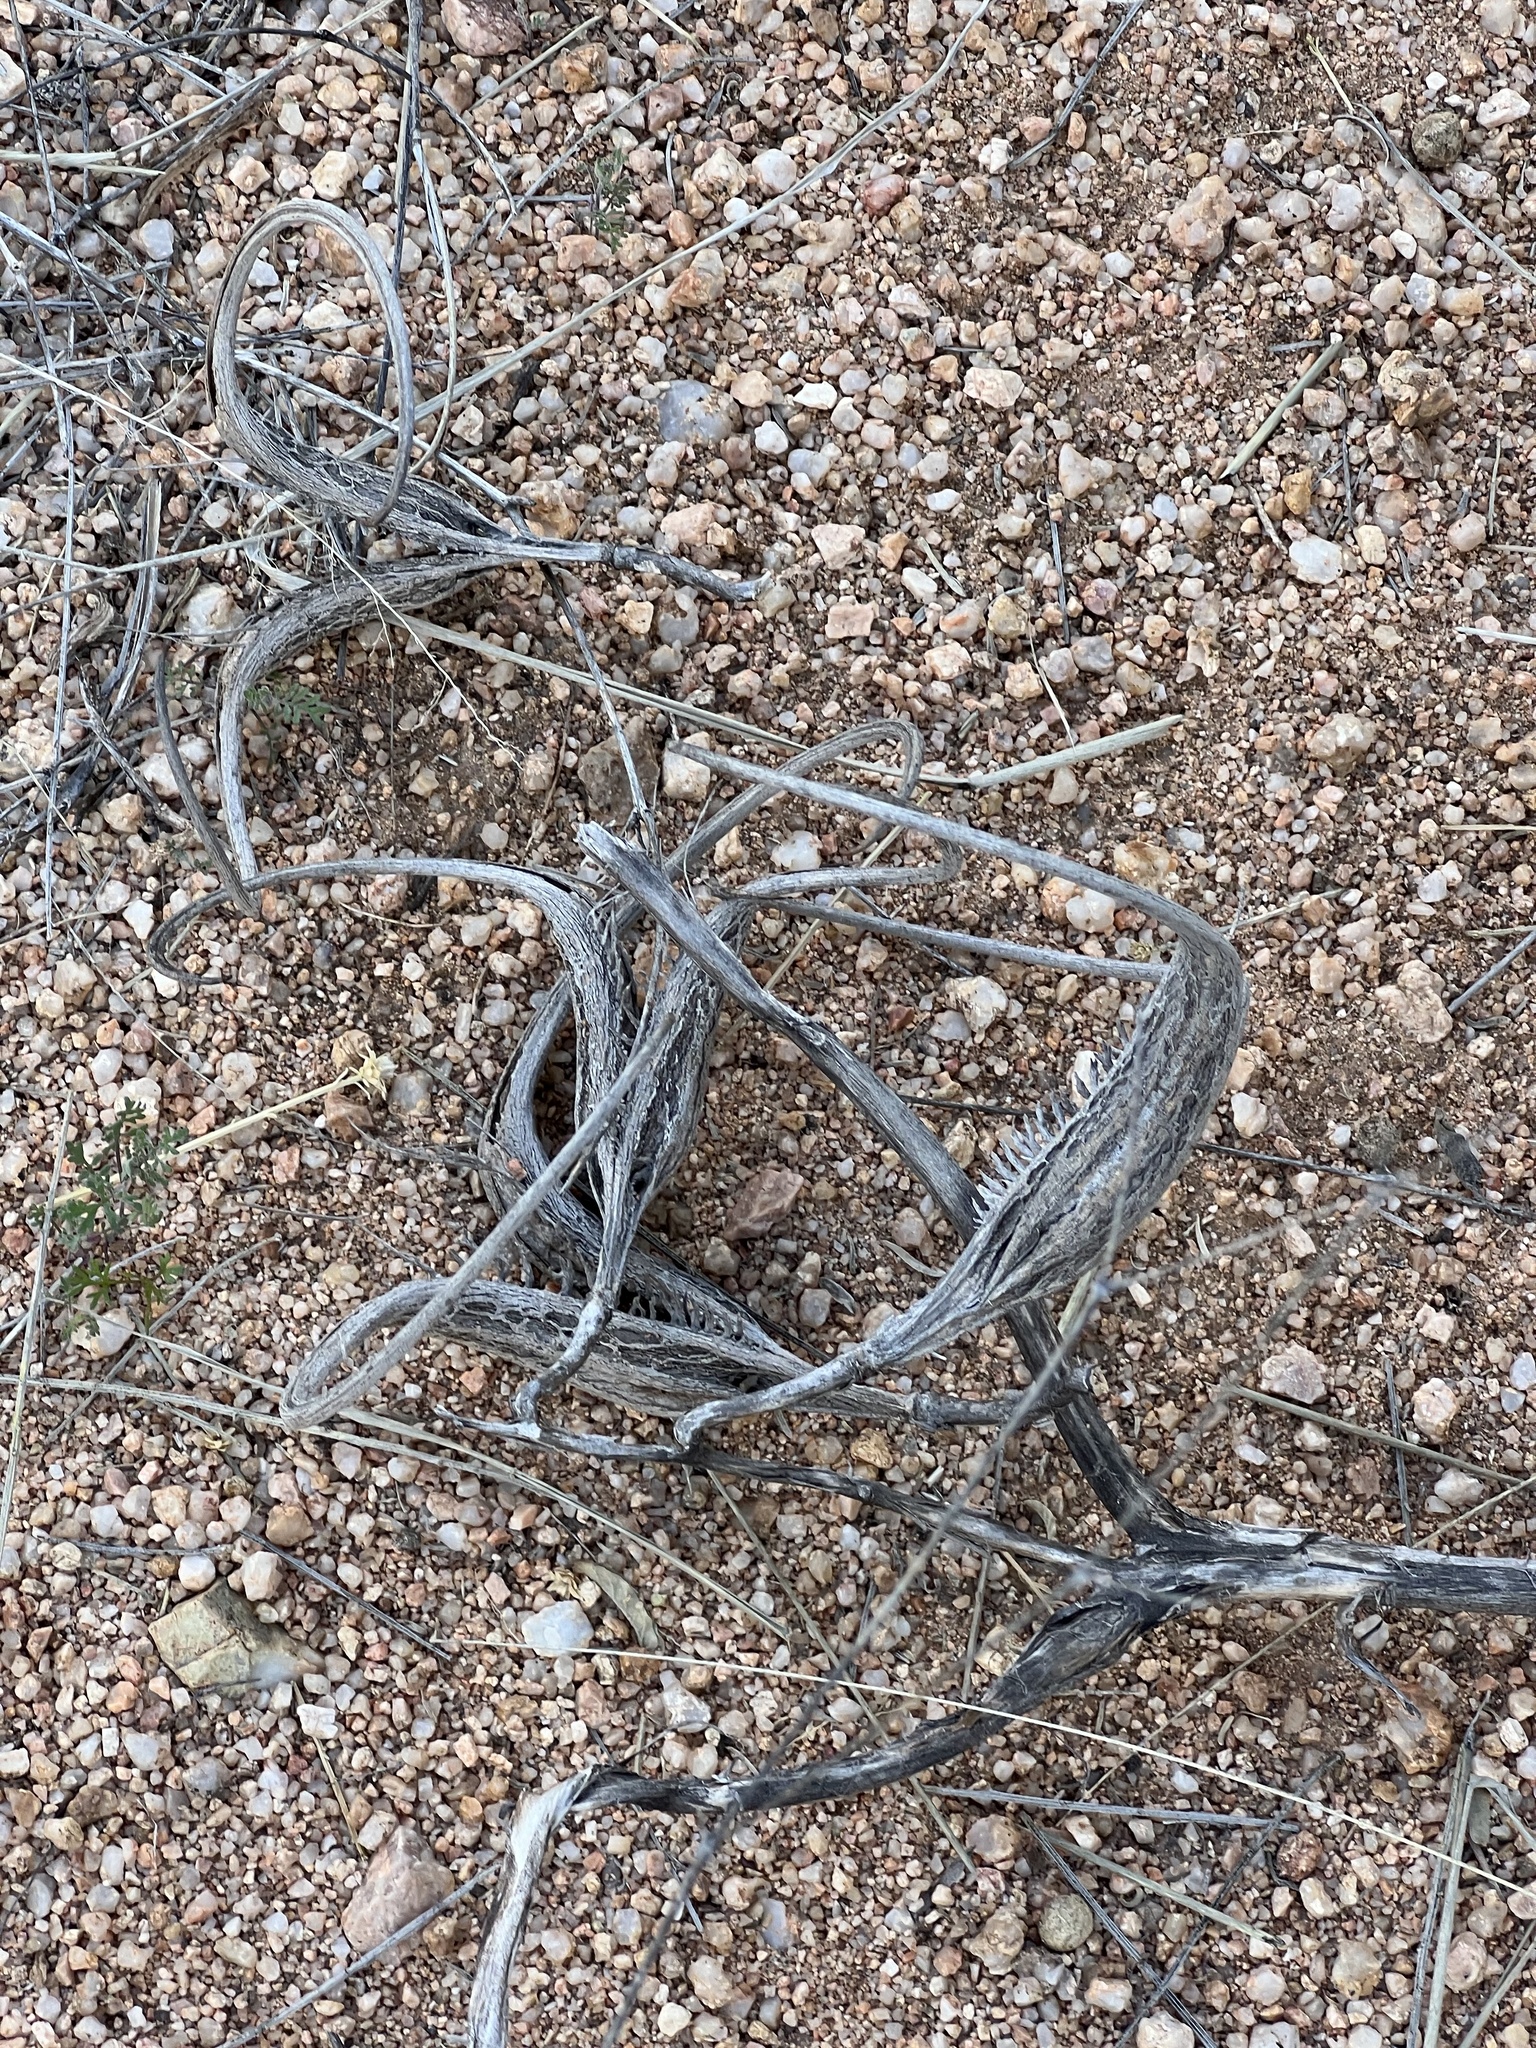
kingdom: Plantae
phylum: Tracheophyta
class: Magnoliopsida
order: Lamiales
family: Martyniaceae
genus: Proboscidea
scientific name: Proboscidea parviflora
